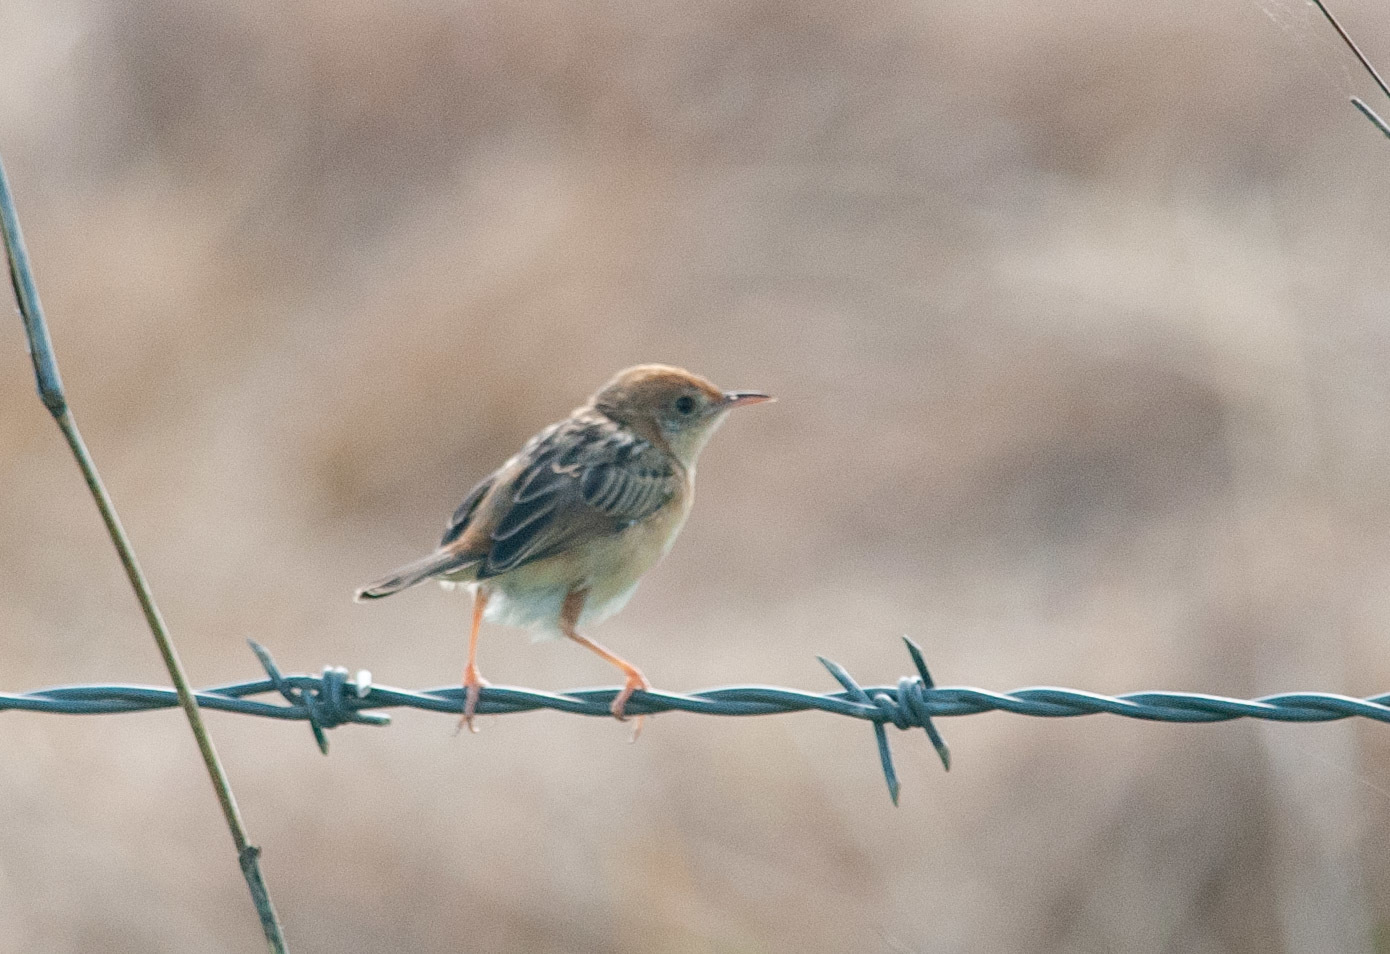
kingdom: Animalia
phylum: Chordata
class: Aves
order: Passeriformes
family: Cisticolidae
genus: Cisticola
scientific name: Cisticola exilis
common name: Golden-headed cisticola
